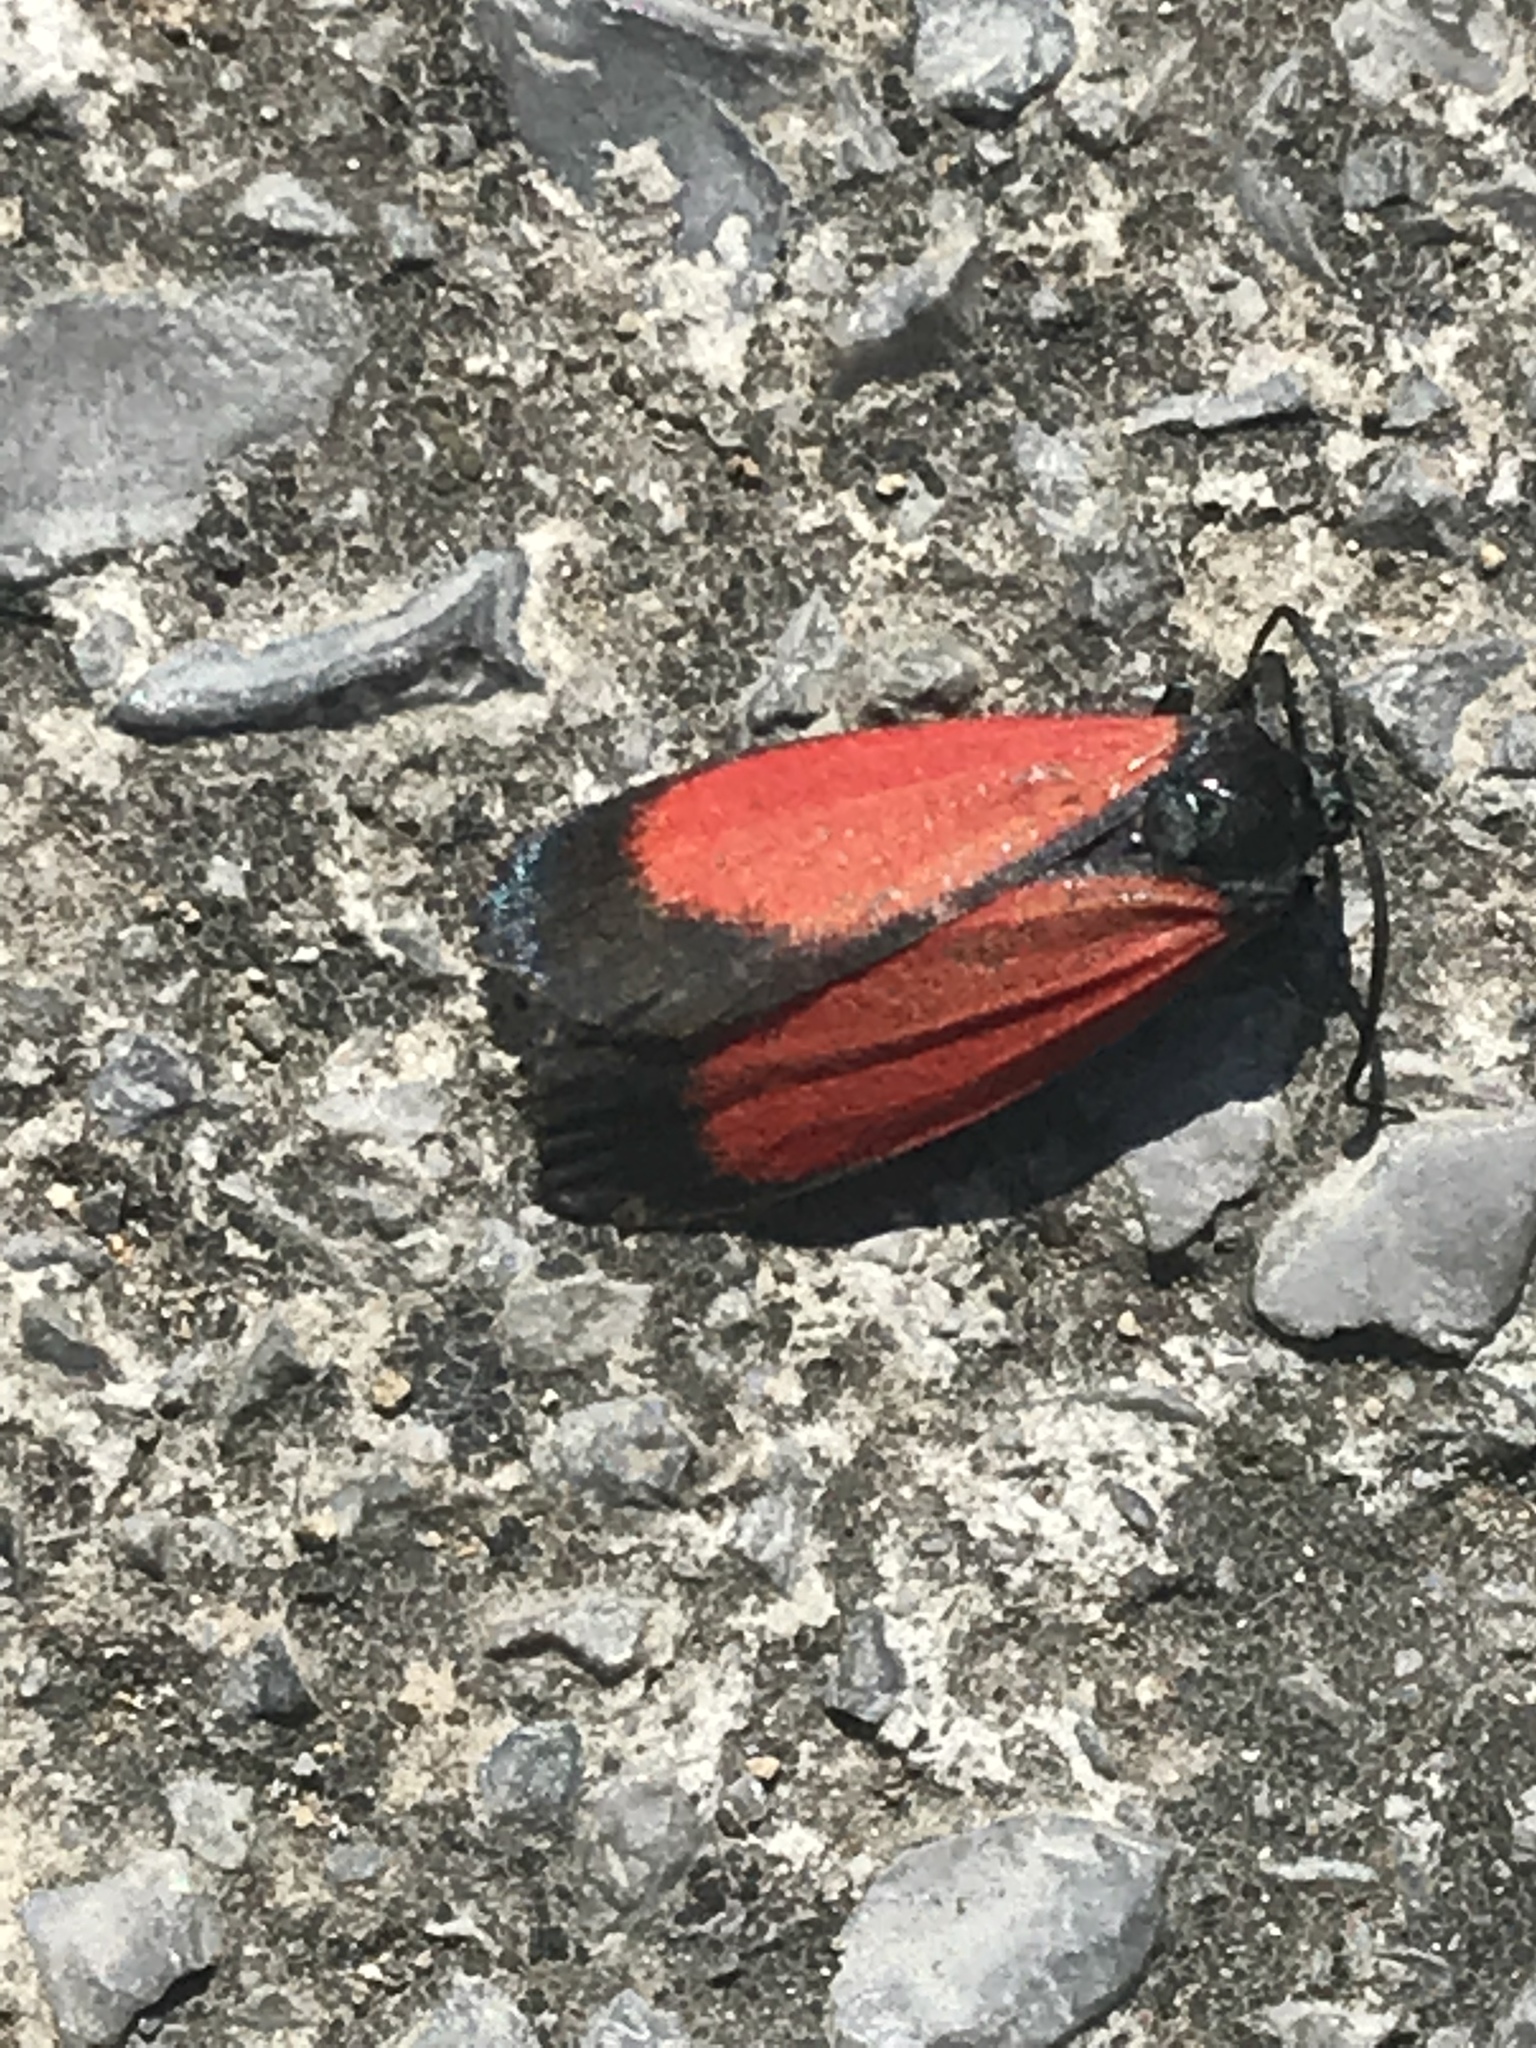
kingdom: Animalia
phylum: Arthropoda
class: Insecta
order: Lepidoptera
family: Erebidae
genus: Ptychoglene
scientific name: Ptychoglene sanguineola
